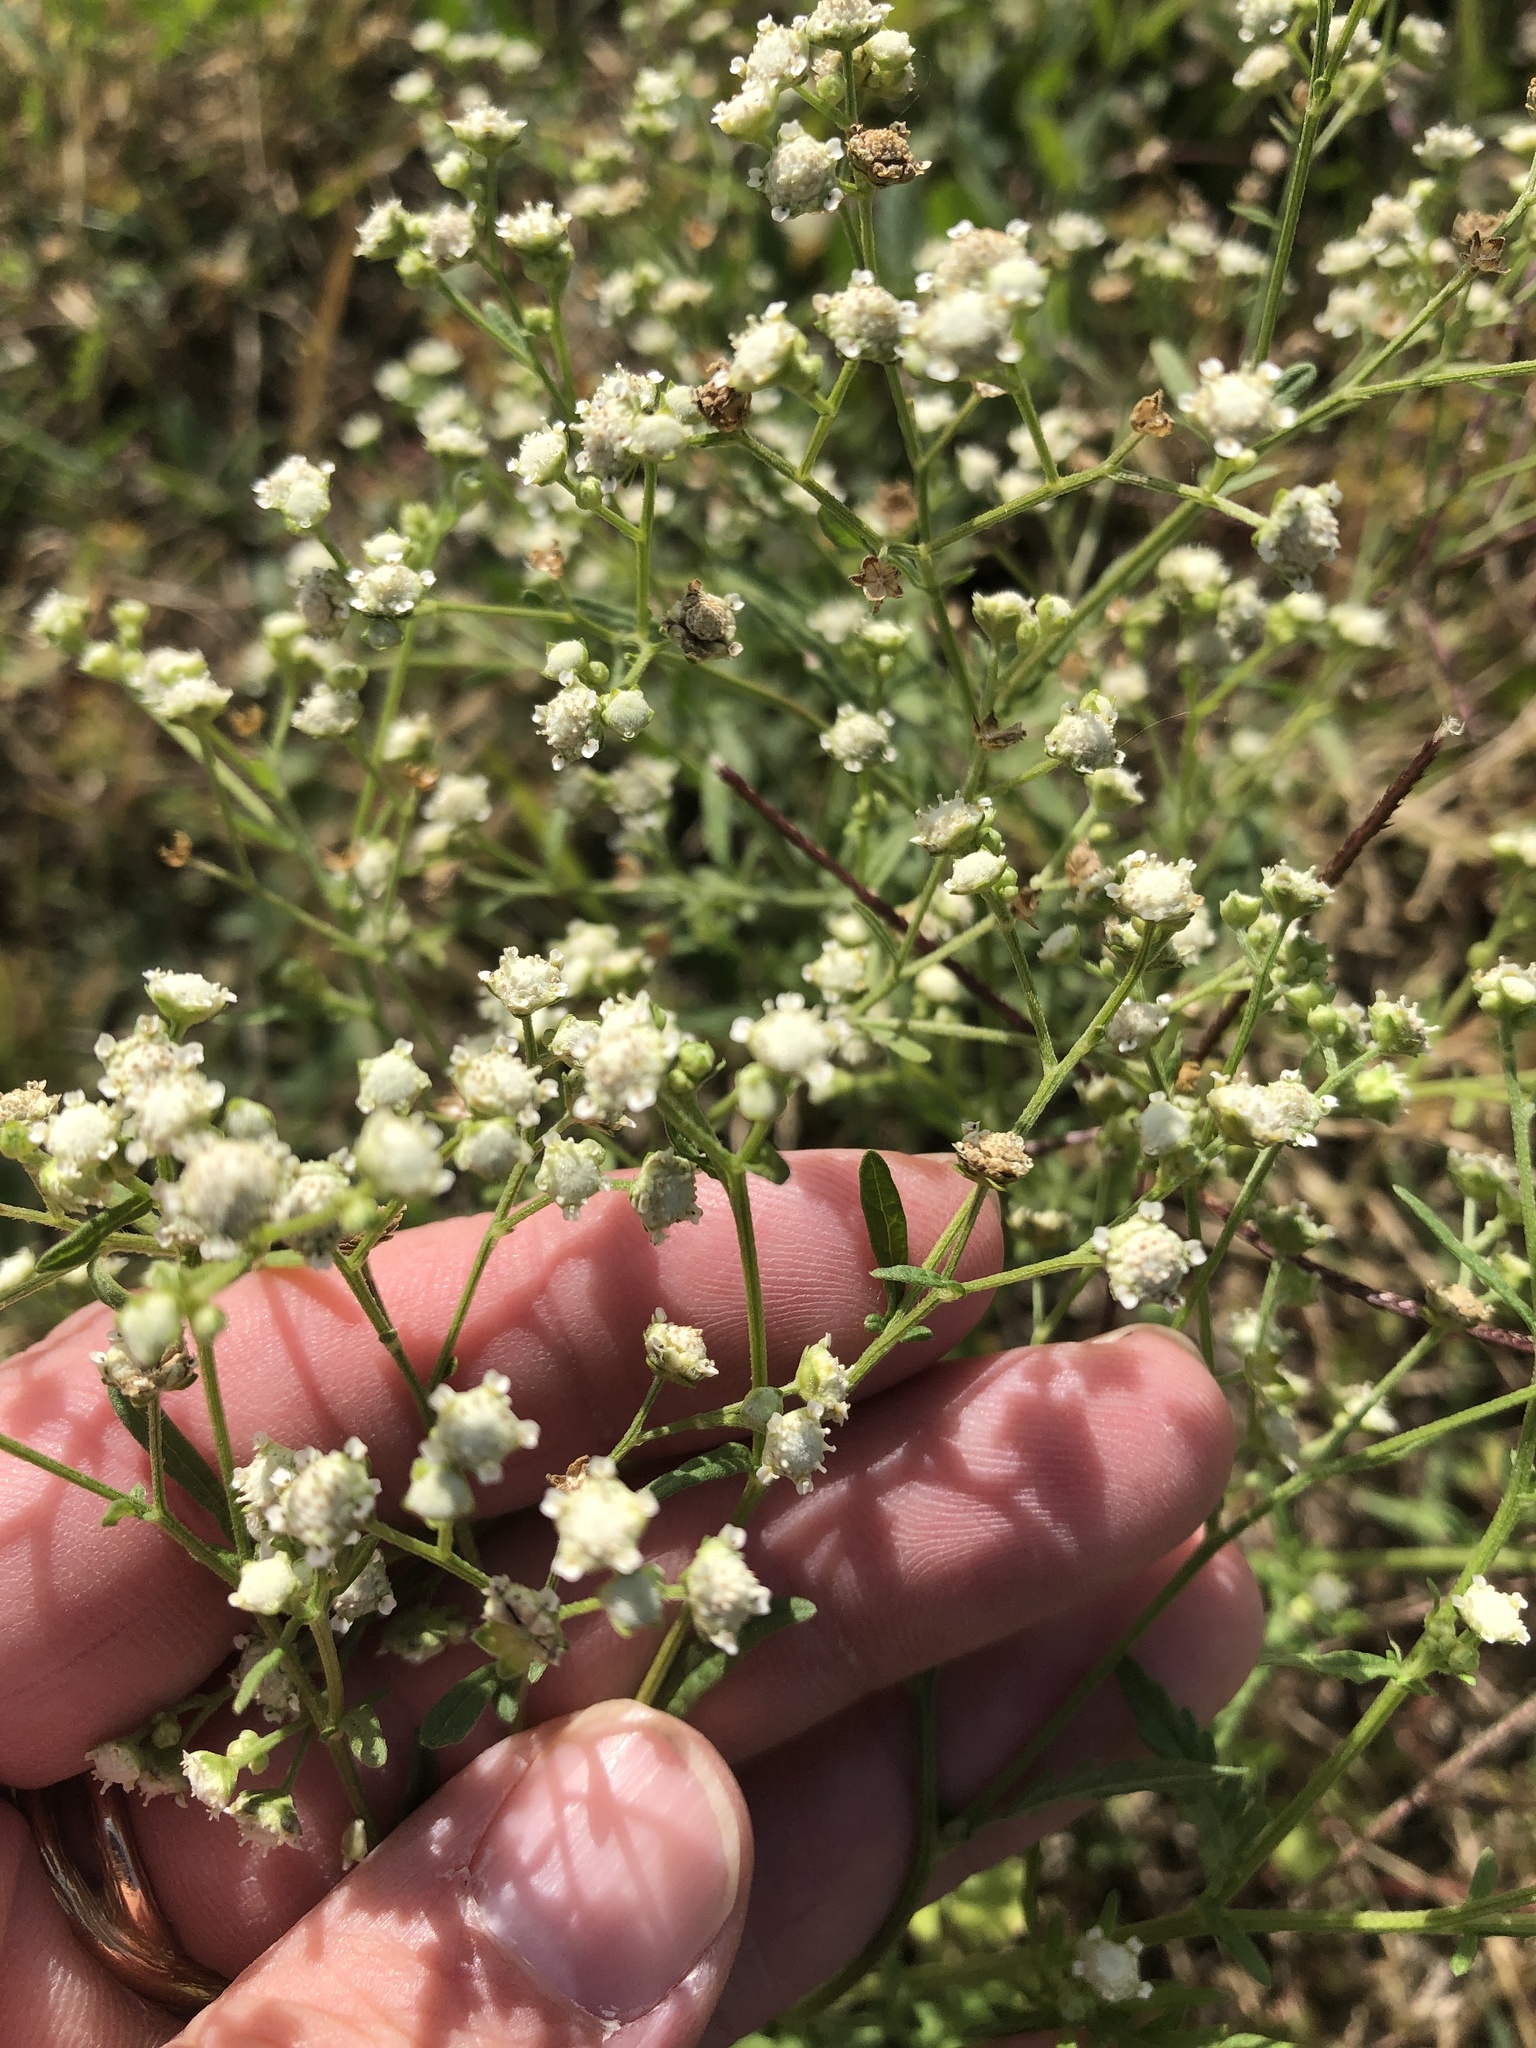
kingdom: Plantae
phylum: Tracheophyta
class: Magnoliopsida
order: Asterales
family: Asteraceae
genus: Parthenium
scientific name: Parthenium hysterophorus
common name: Santa maria feverfew
